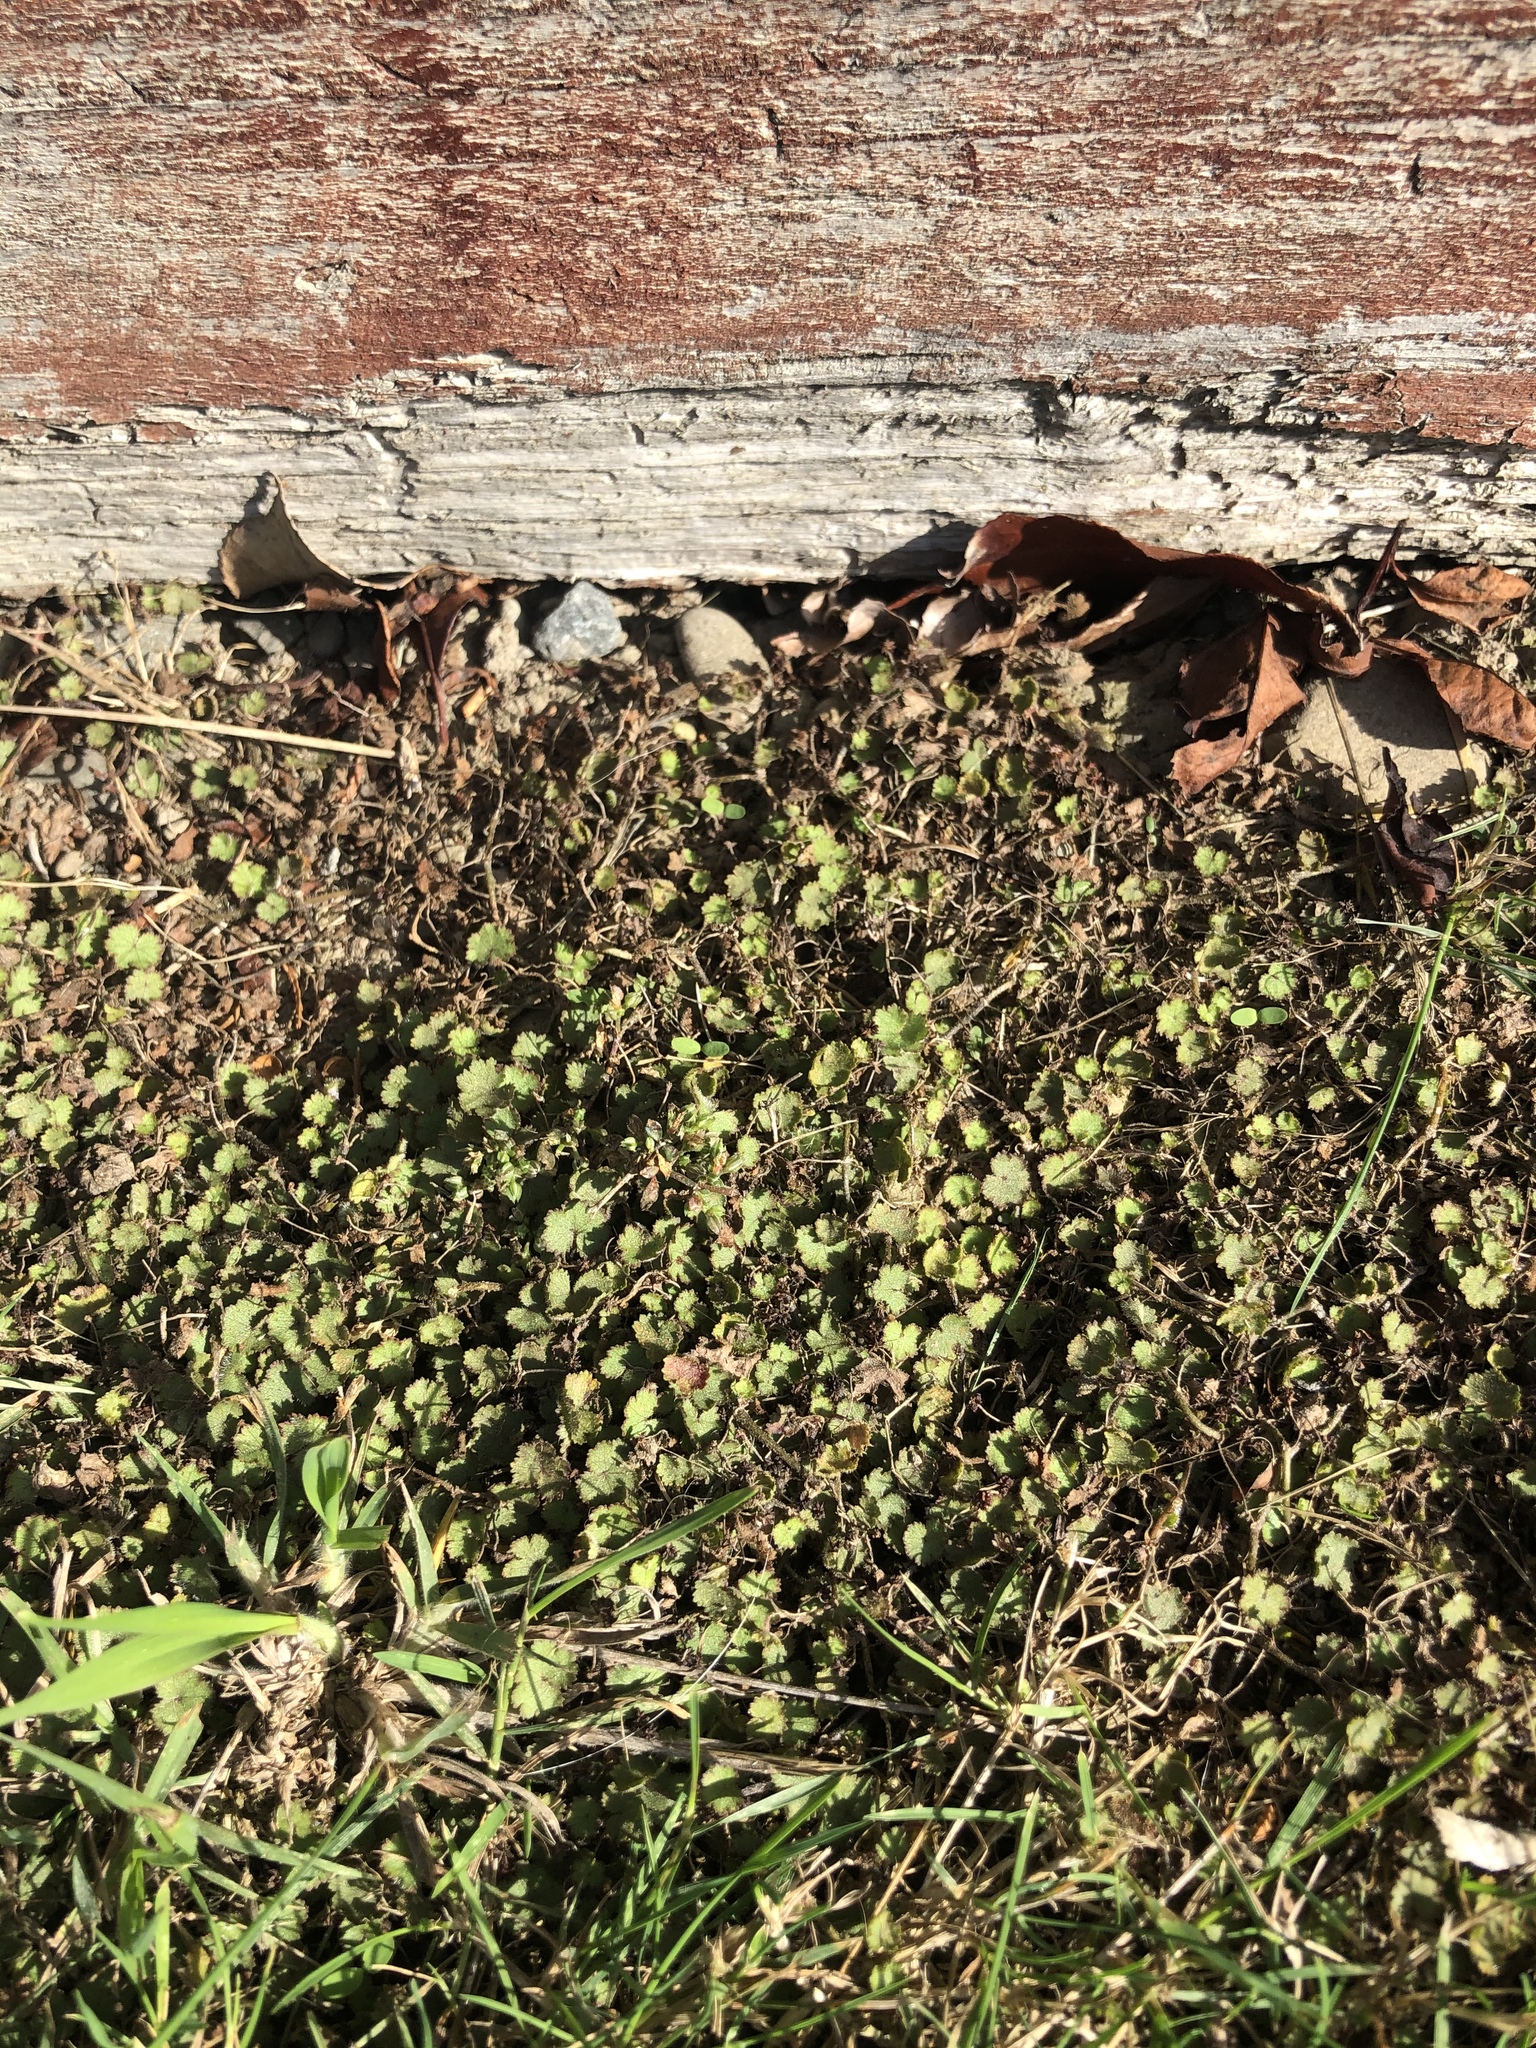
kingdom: Plantae
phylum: Tracheophyta
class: Magnoliopsida
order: Apiales
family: Araliaceae
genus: Hydrocotyle
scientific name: Hydrocotyle moschata
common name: Hairy pennywort
